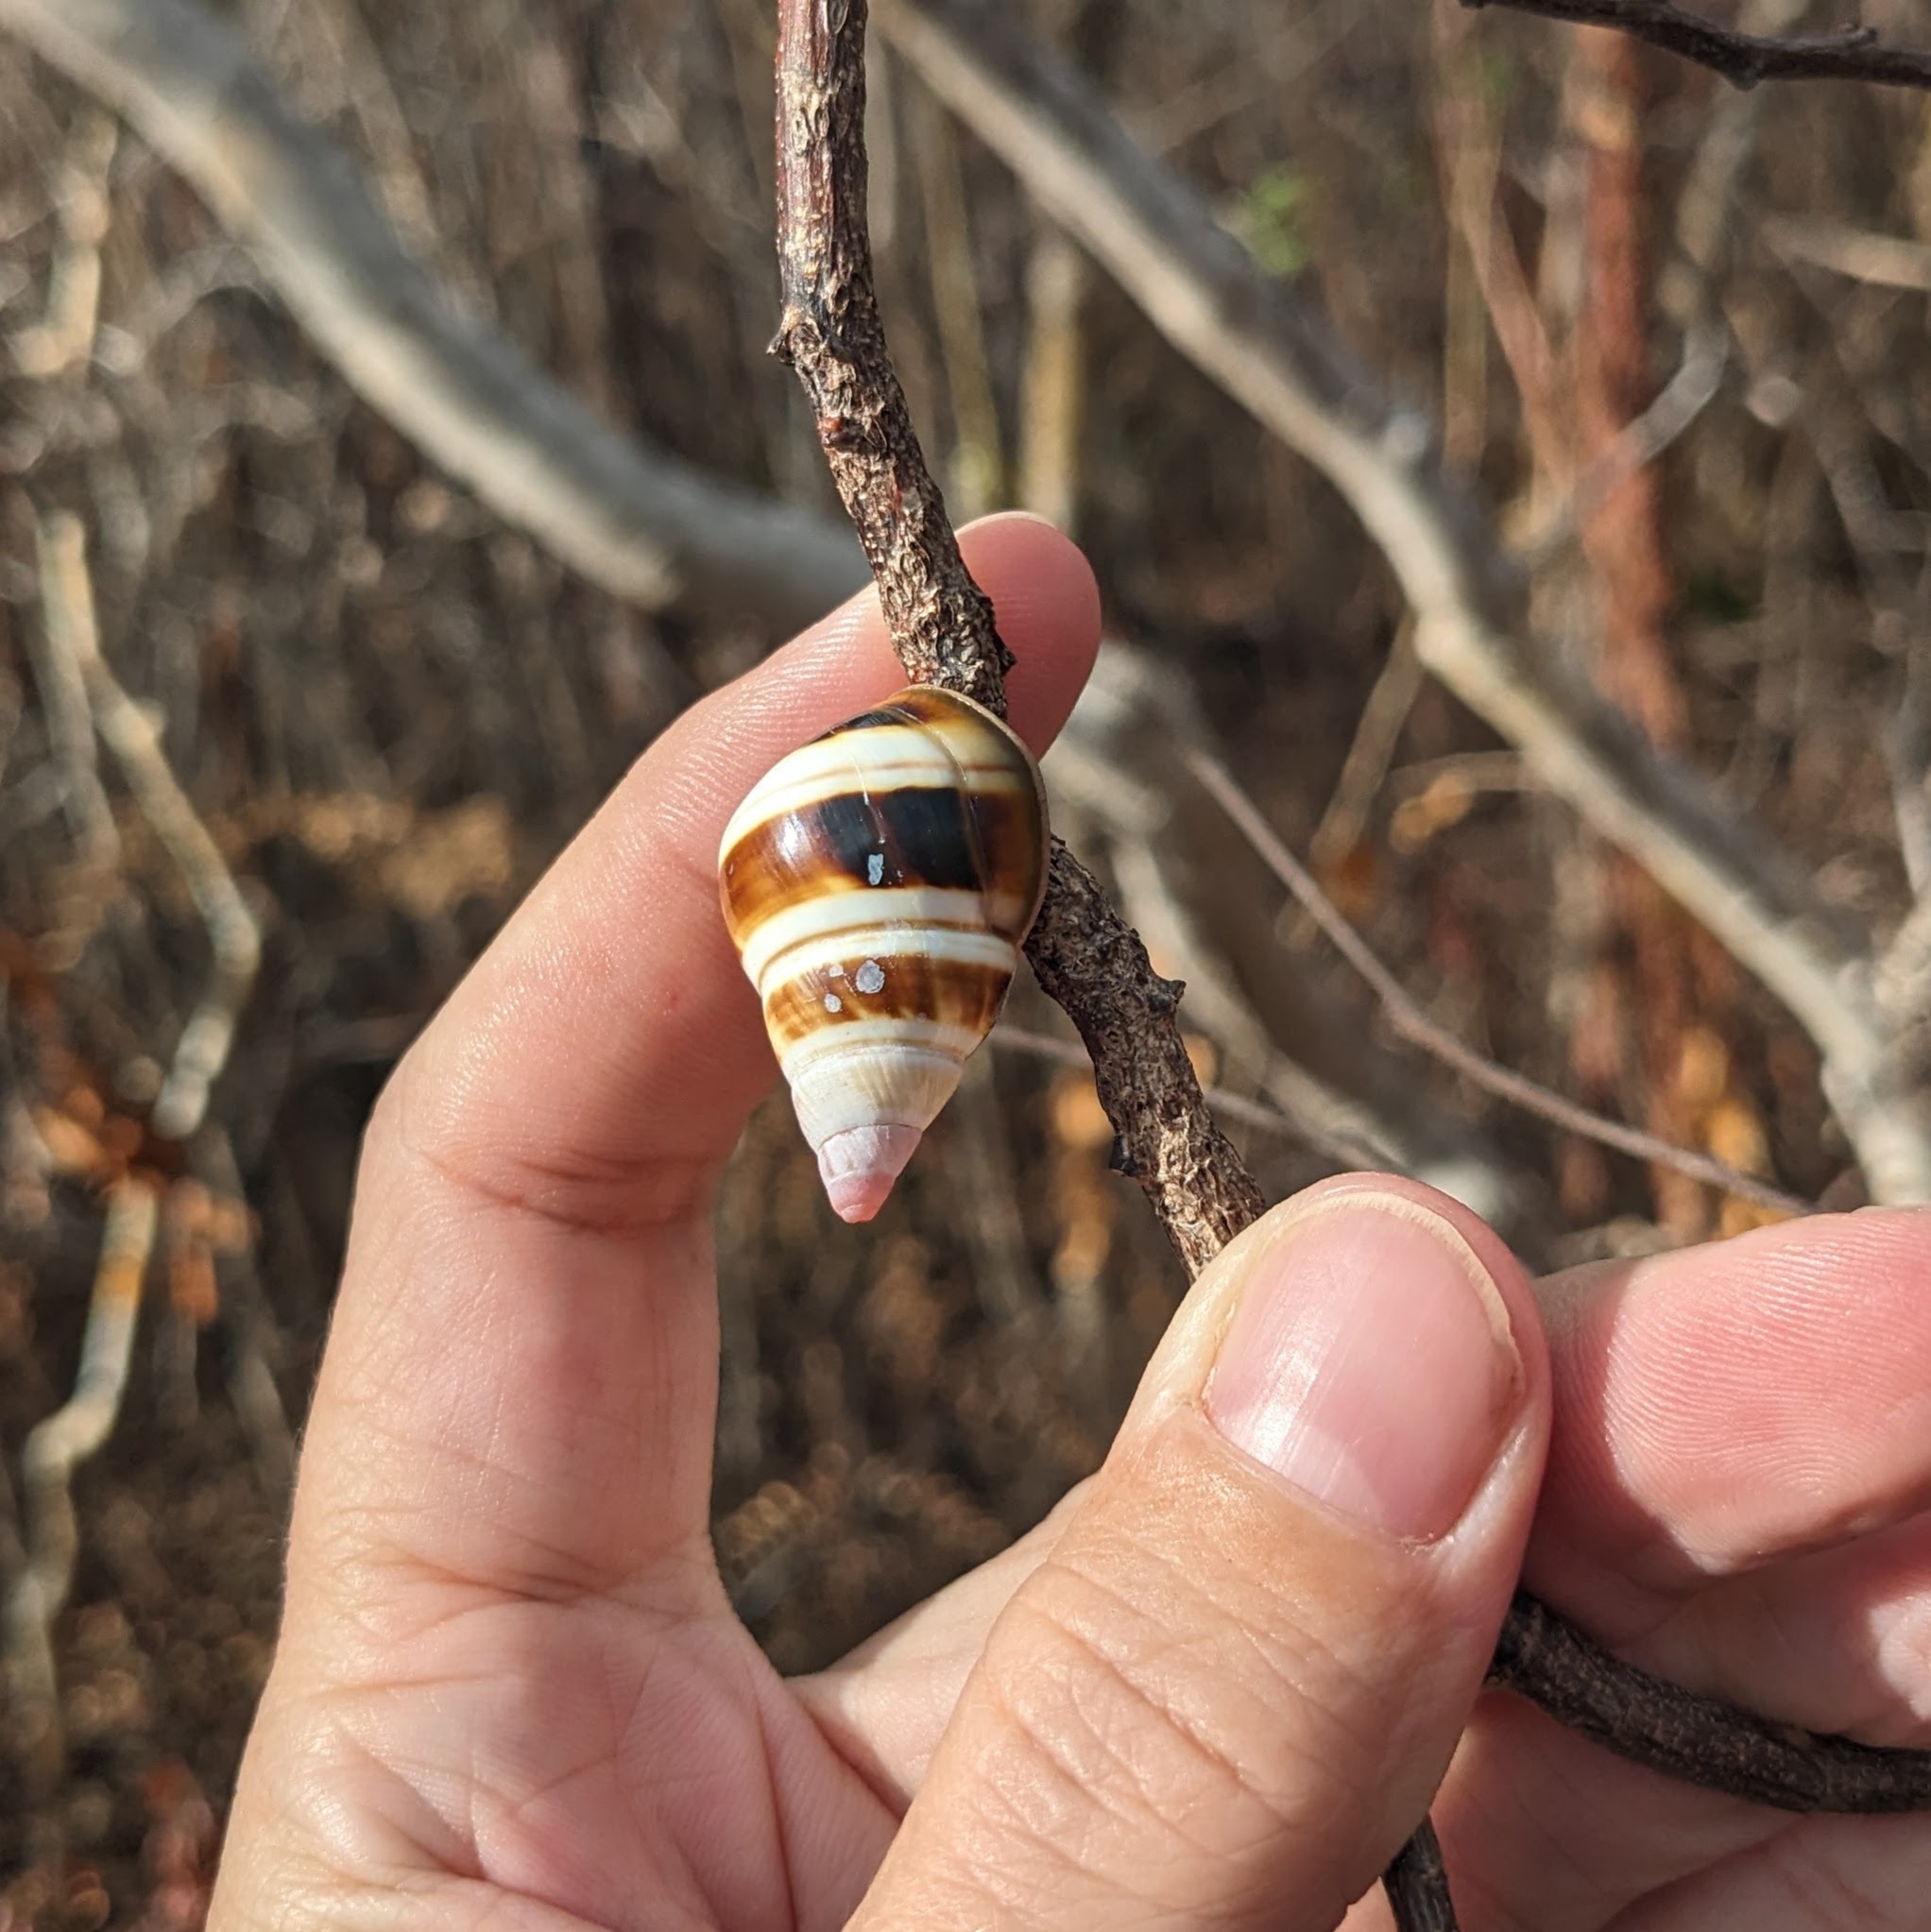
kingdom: Animalia
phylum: Mollusca
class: Gastropoda
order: Stylommatophora
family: Orthalicidae
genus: Liguus
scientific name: Liguus fasciatus
